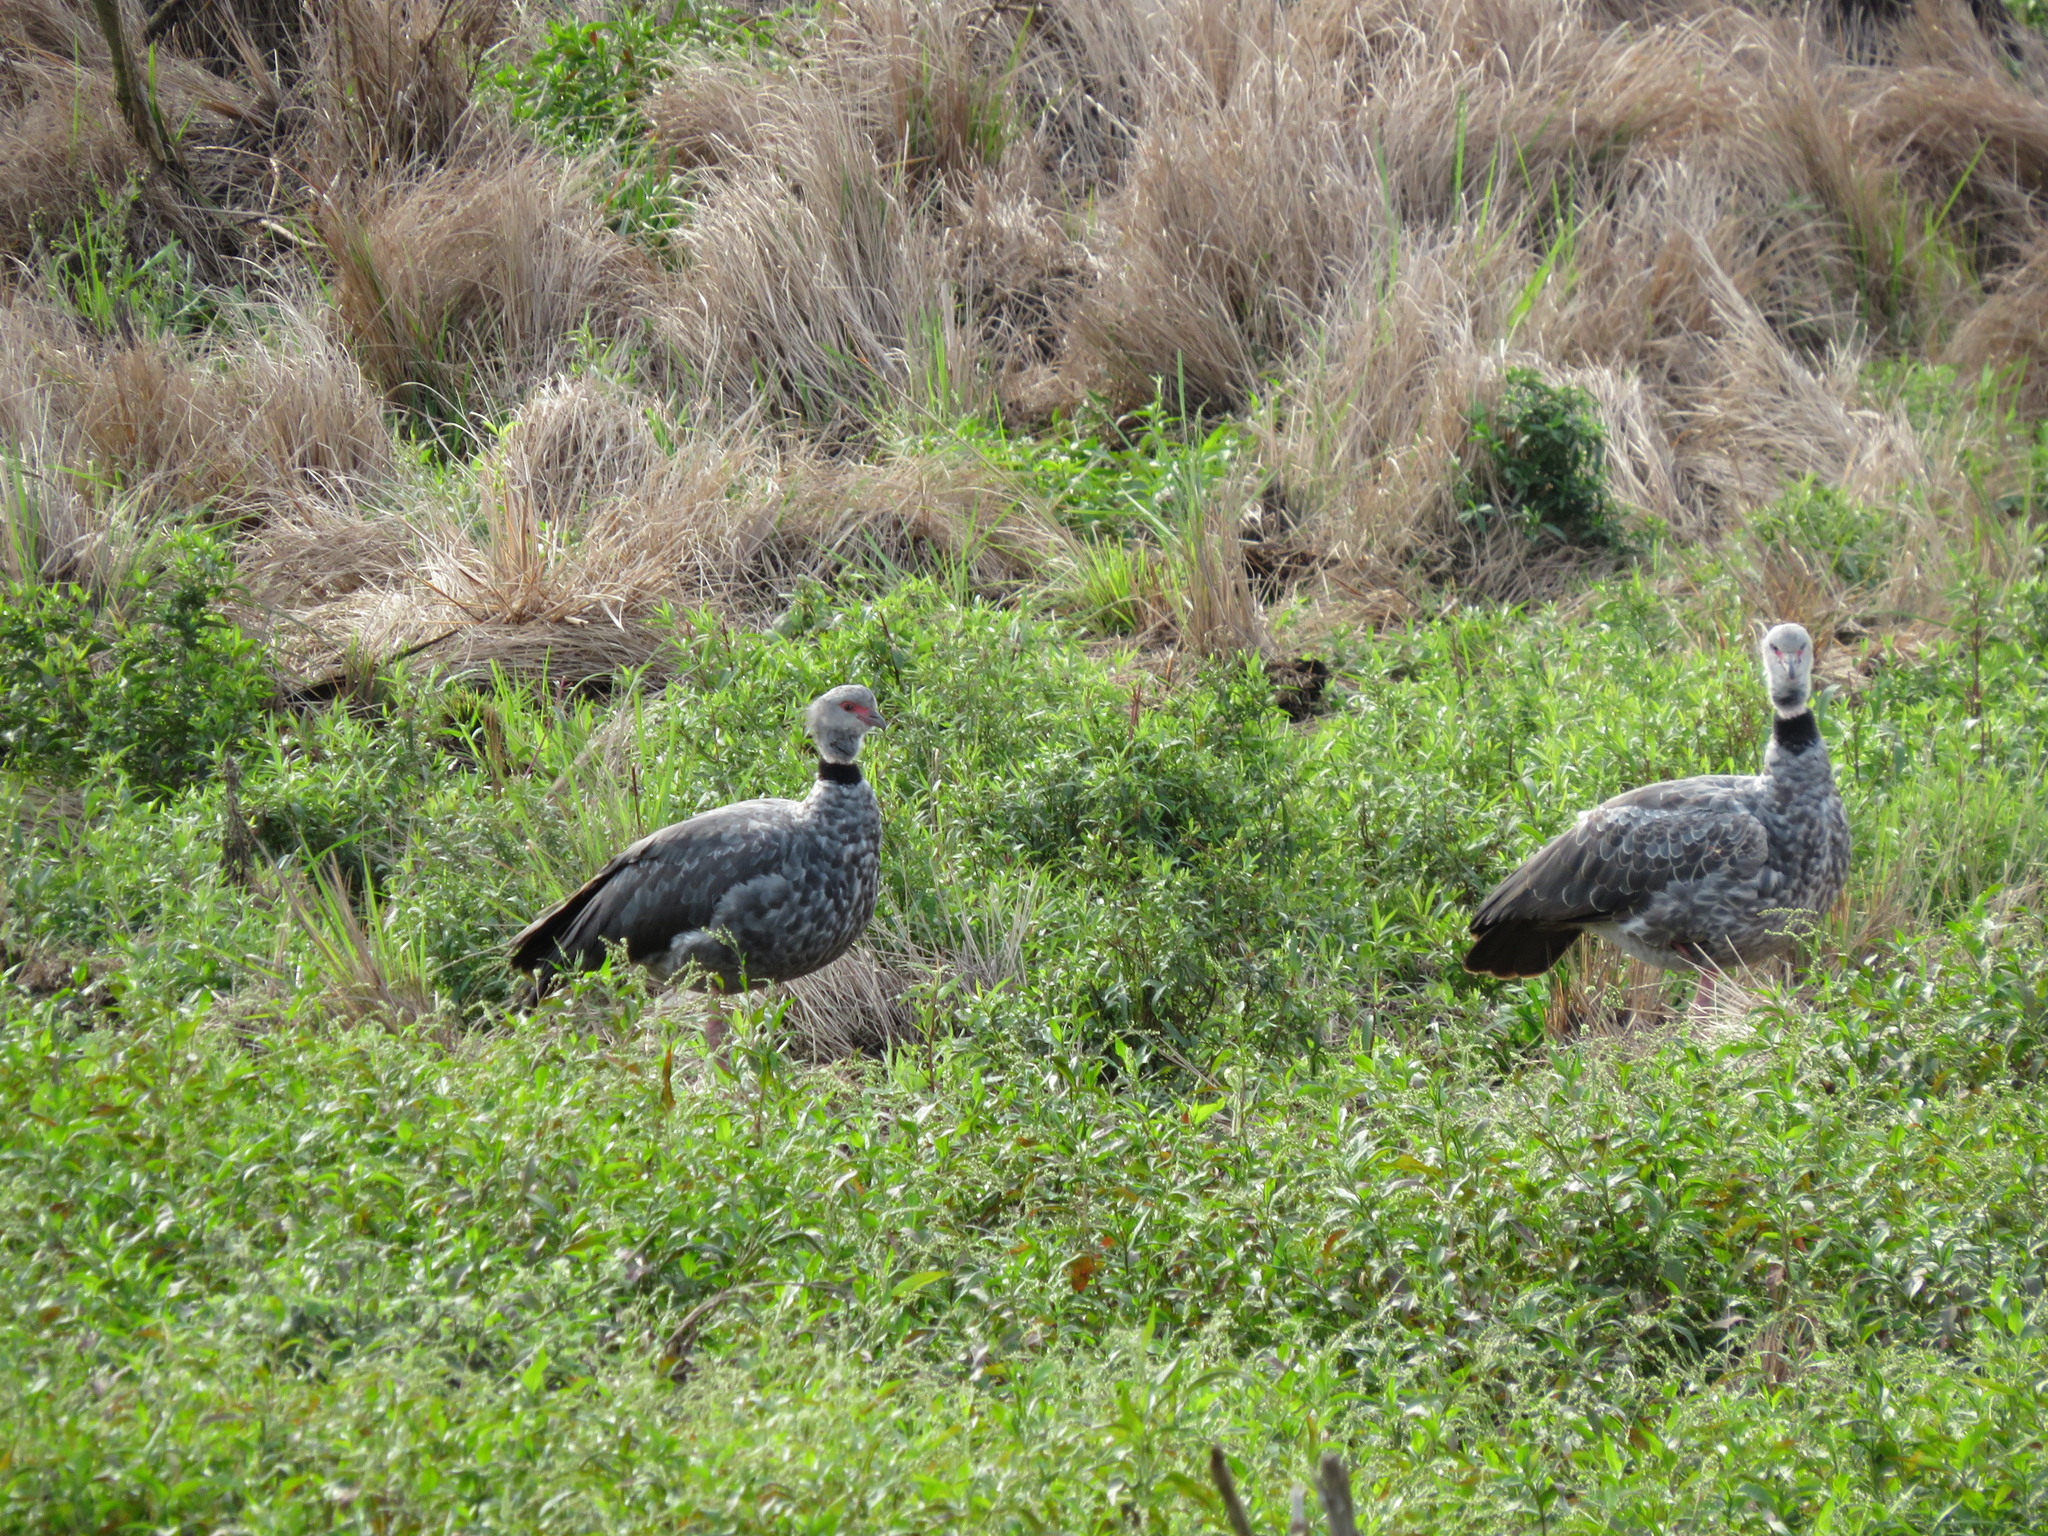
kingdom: Animalia
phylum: Chordata
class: Aves
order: Anseriformes
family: Anhimidae
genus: Chauna
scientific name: Chauna torquata
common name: Southern screamer
